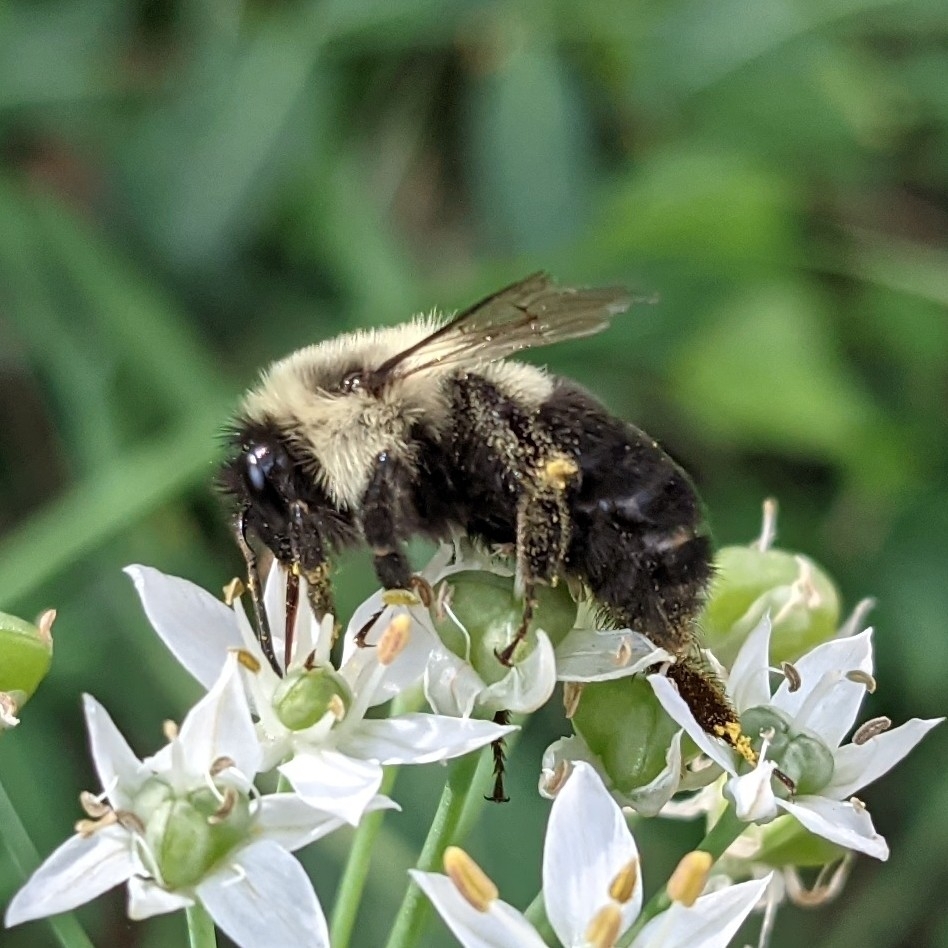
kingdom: Animalia
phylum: Arthropoda
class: Insecta
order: Hymenoptera
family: Apidae
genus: Bombus
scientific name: Bombus impatiens
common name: Common eastern bumble bee
